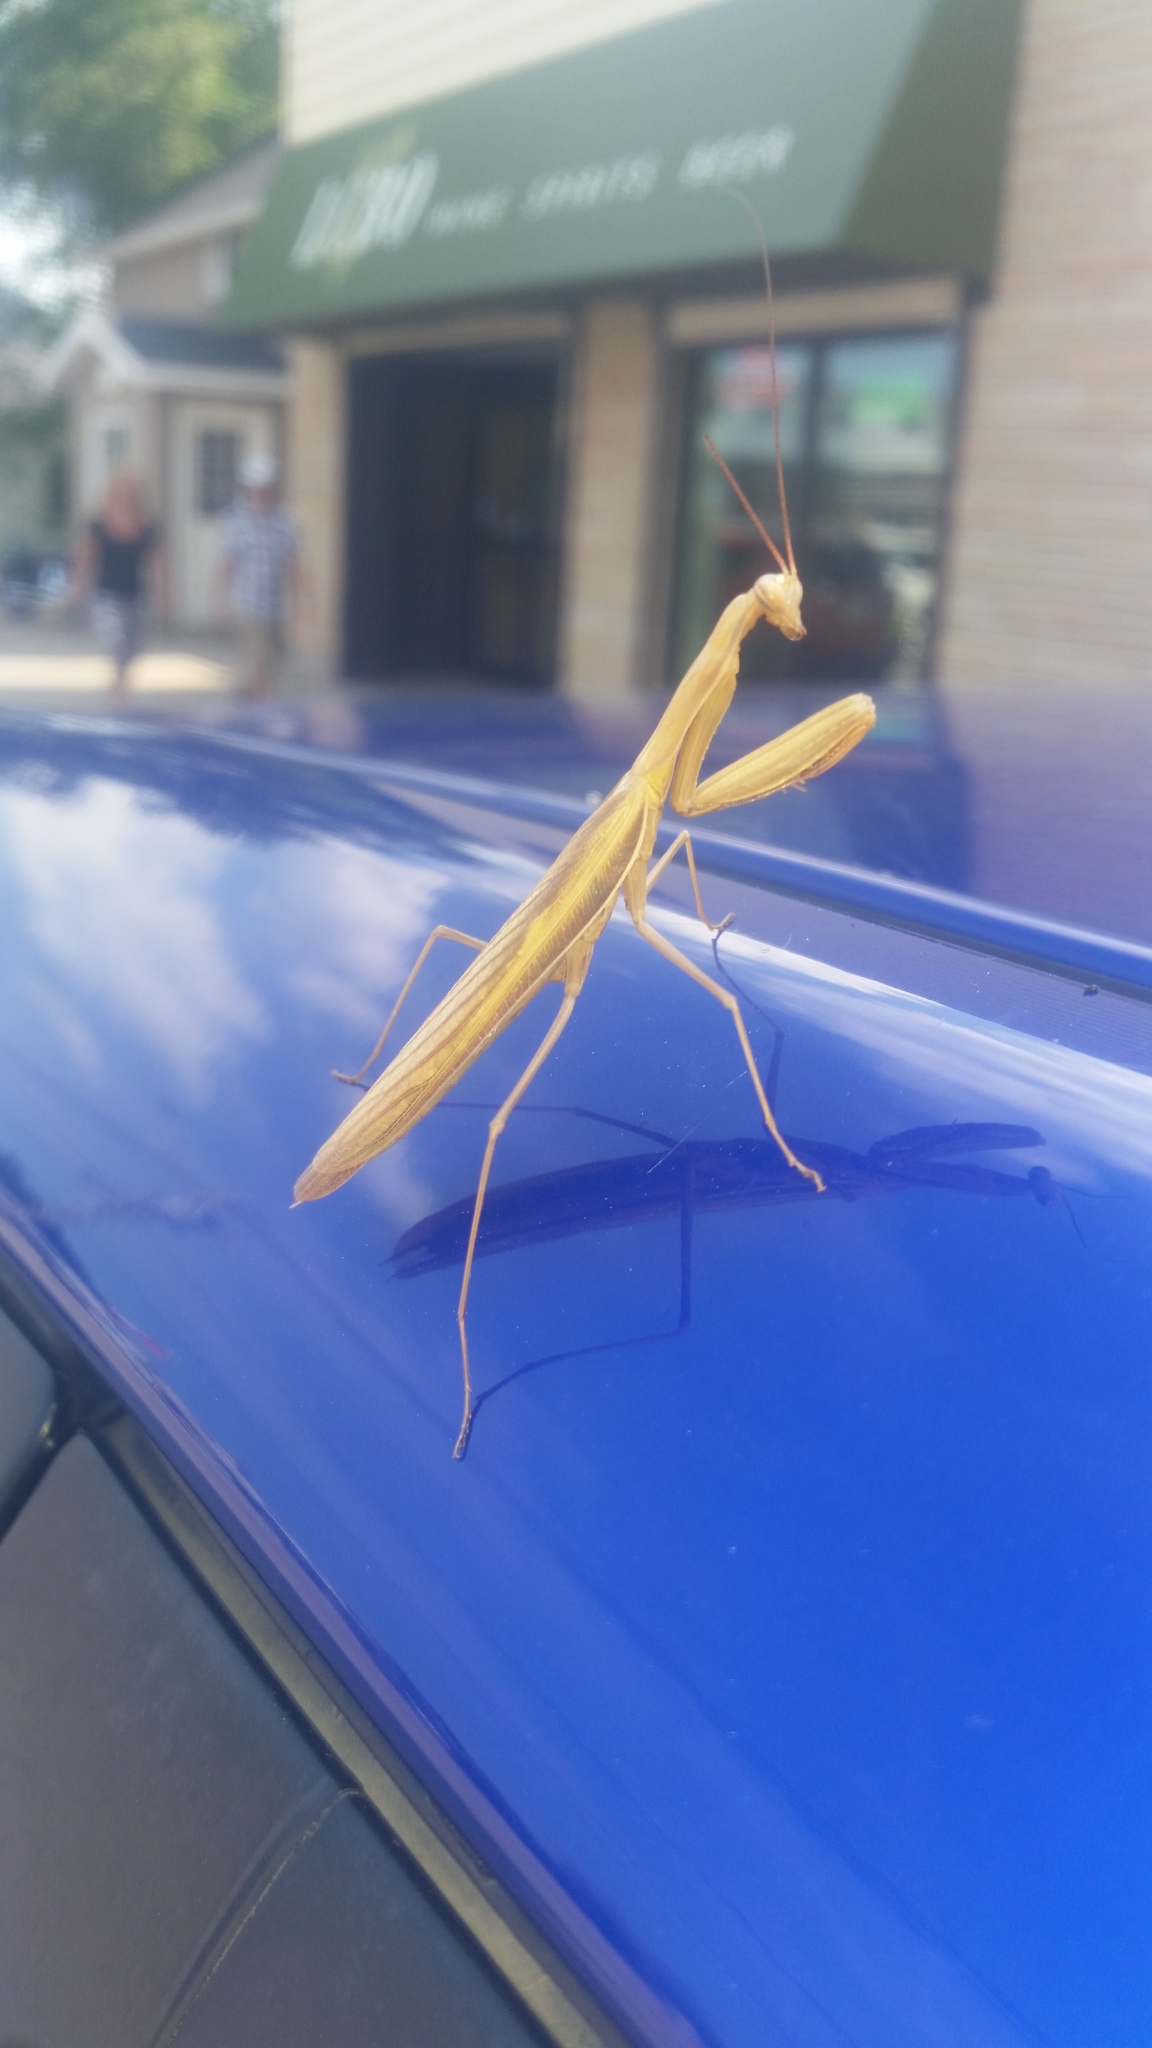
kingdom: Animalia
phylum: Arthropoda
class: Insecta
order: Mantodea
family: Mantidae
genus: Mantis
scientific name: Mantis religiosa
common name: Praying mantis
